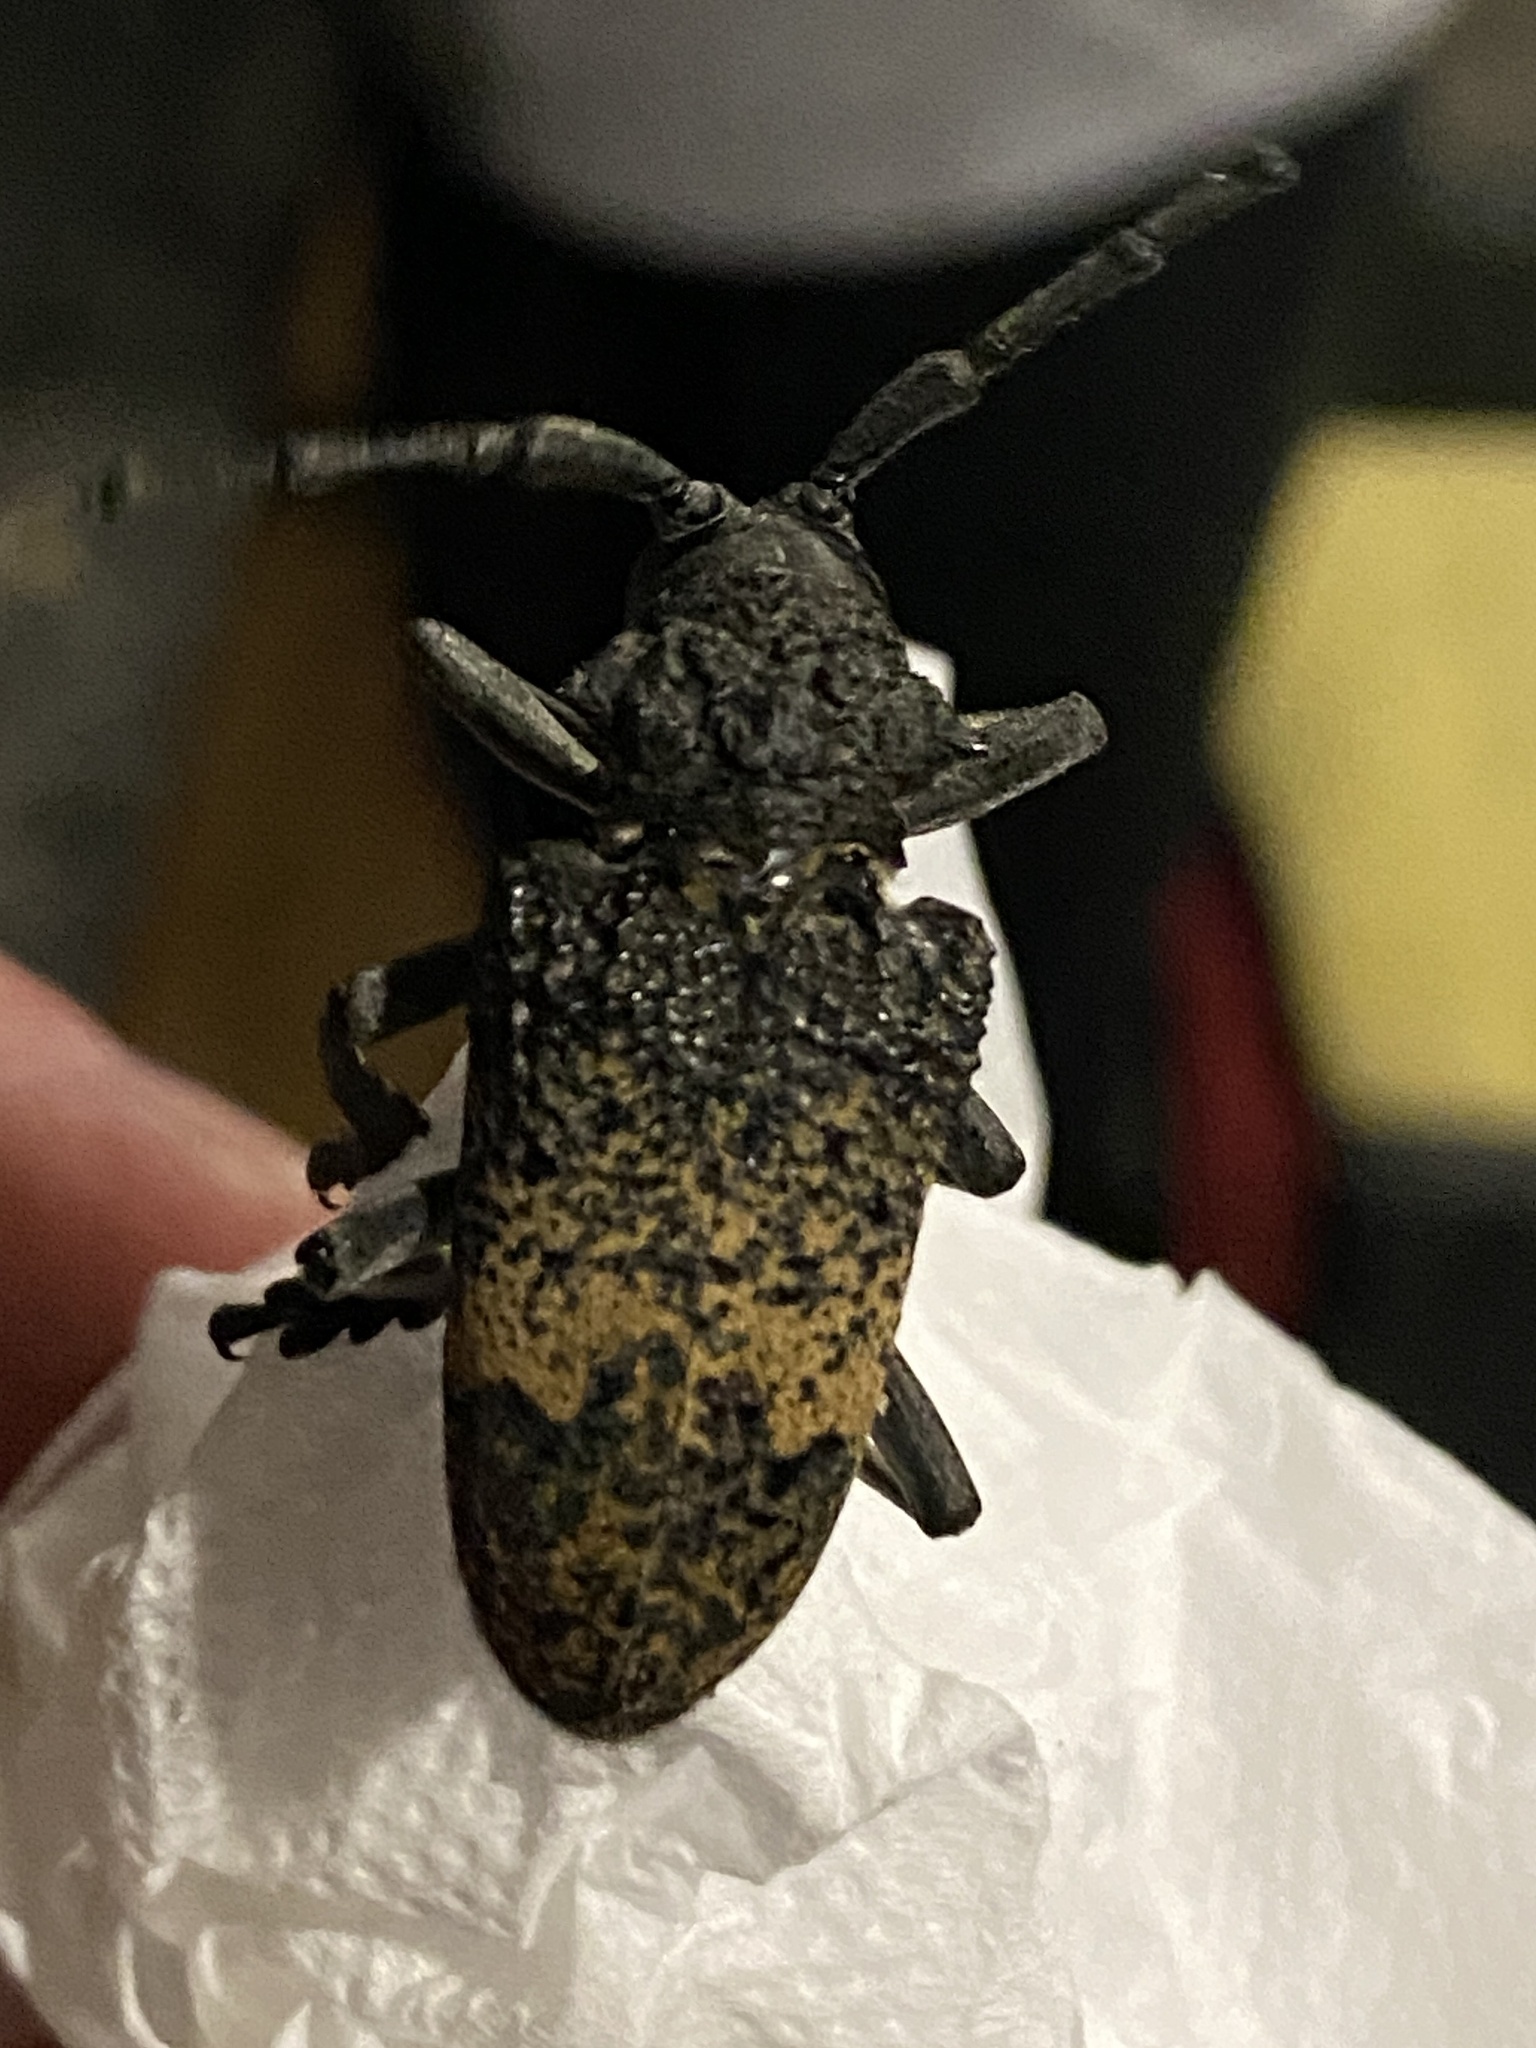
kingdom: Animalia
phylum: Arthropoda
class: Insecta
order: Coleoptera
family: Cerambycidae
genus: Phryneta
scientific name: Phryneta spinator
